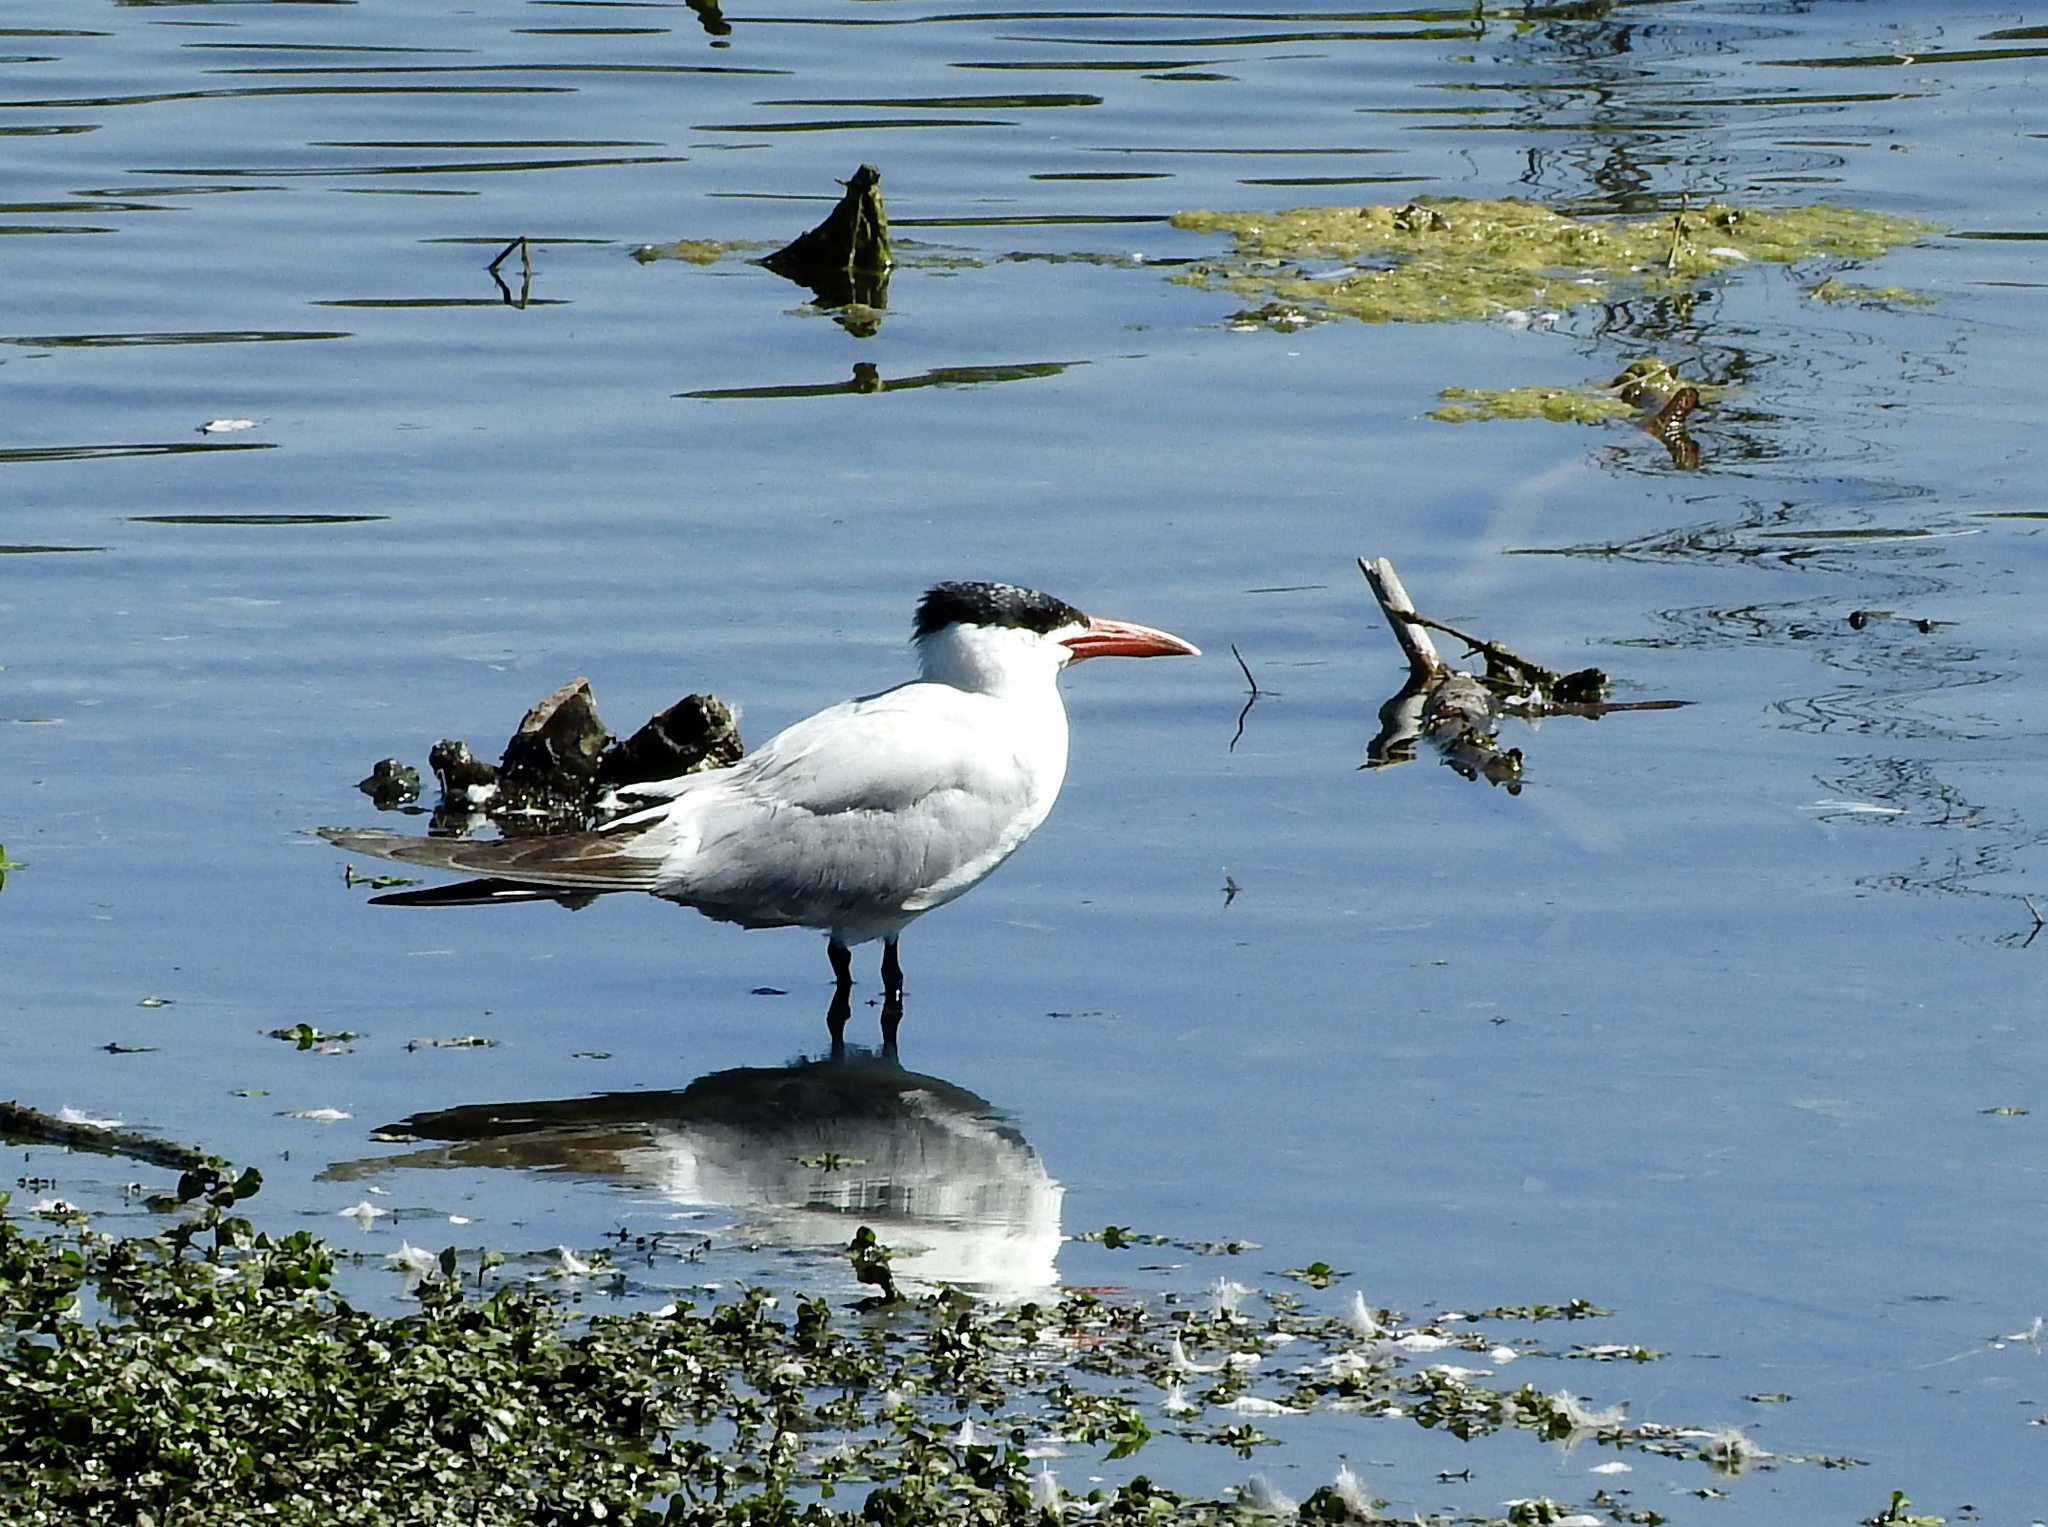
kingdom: Animalia
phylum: Chordata
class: Aves
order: Charadriiformes
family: Laridae
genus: Hydroprogne
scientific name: Hydroprogne caspia
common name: Caspian tern
